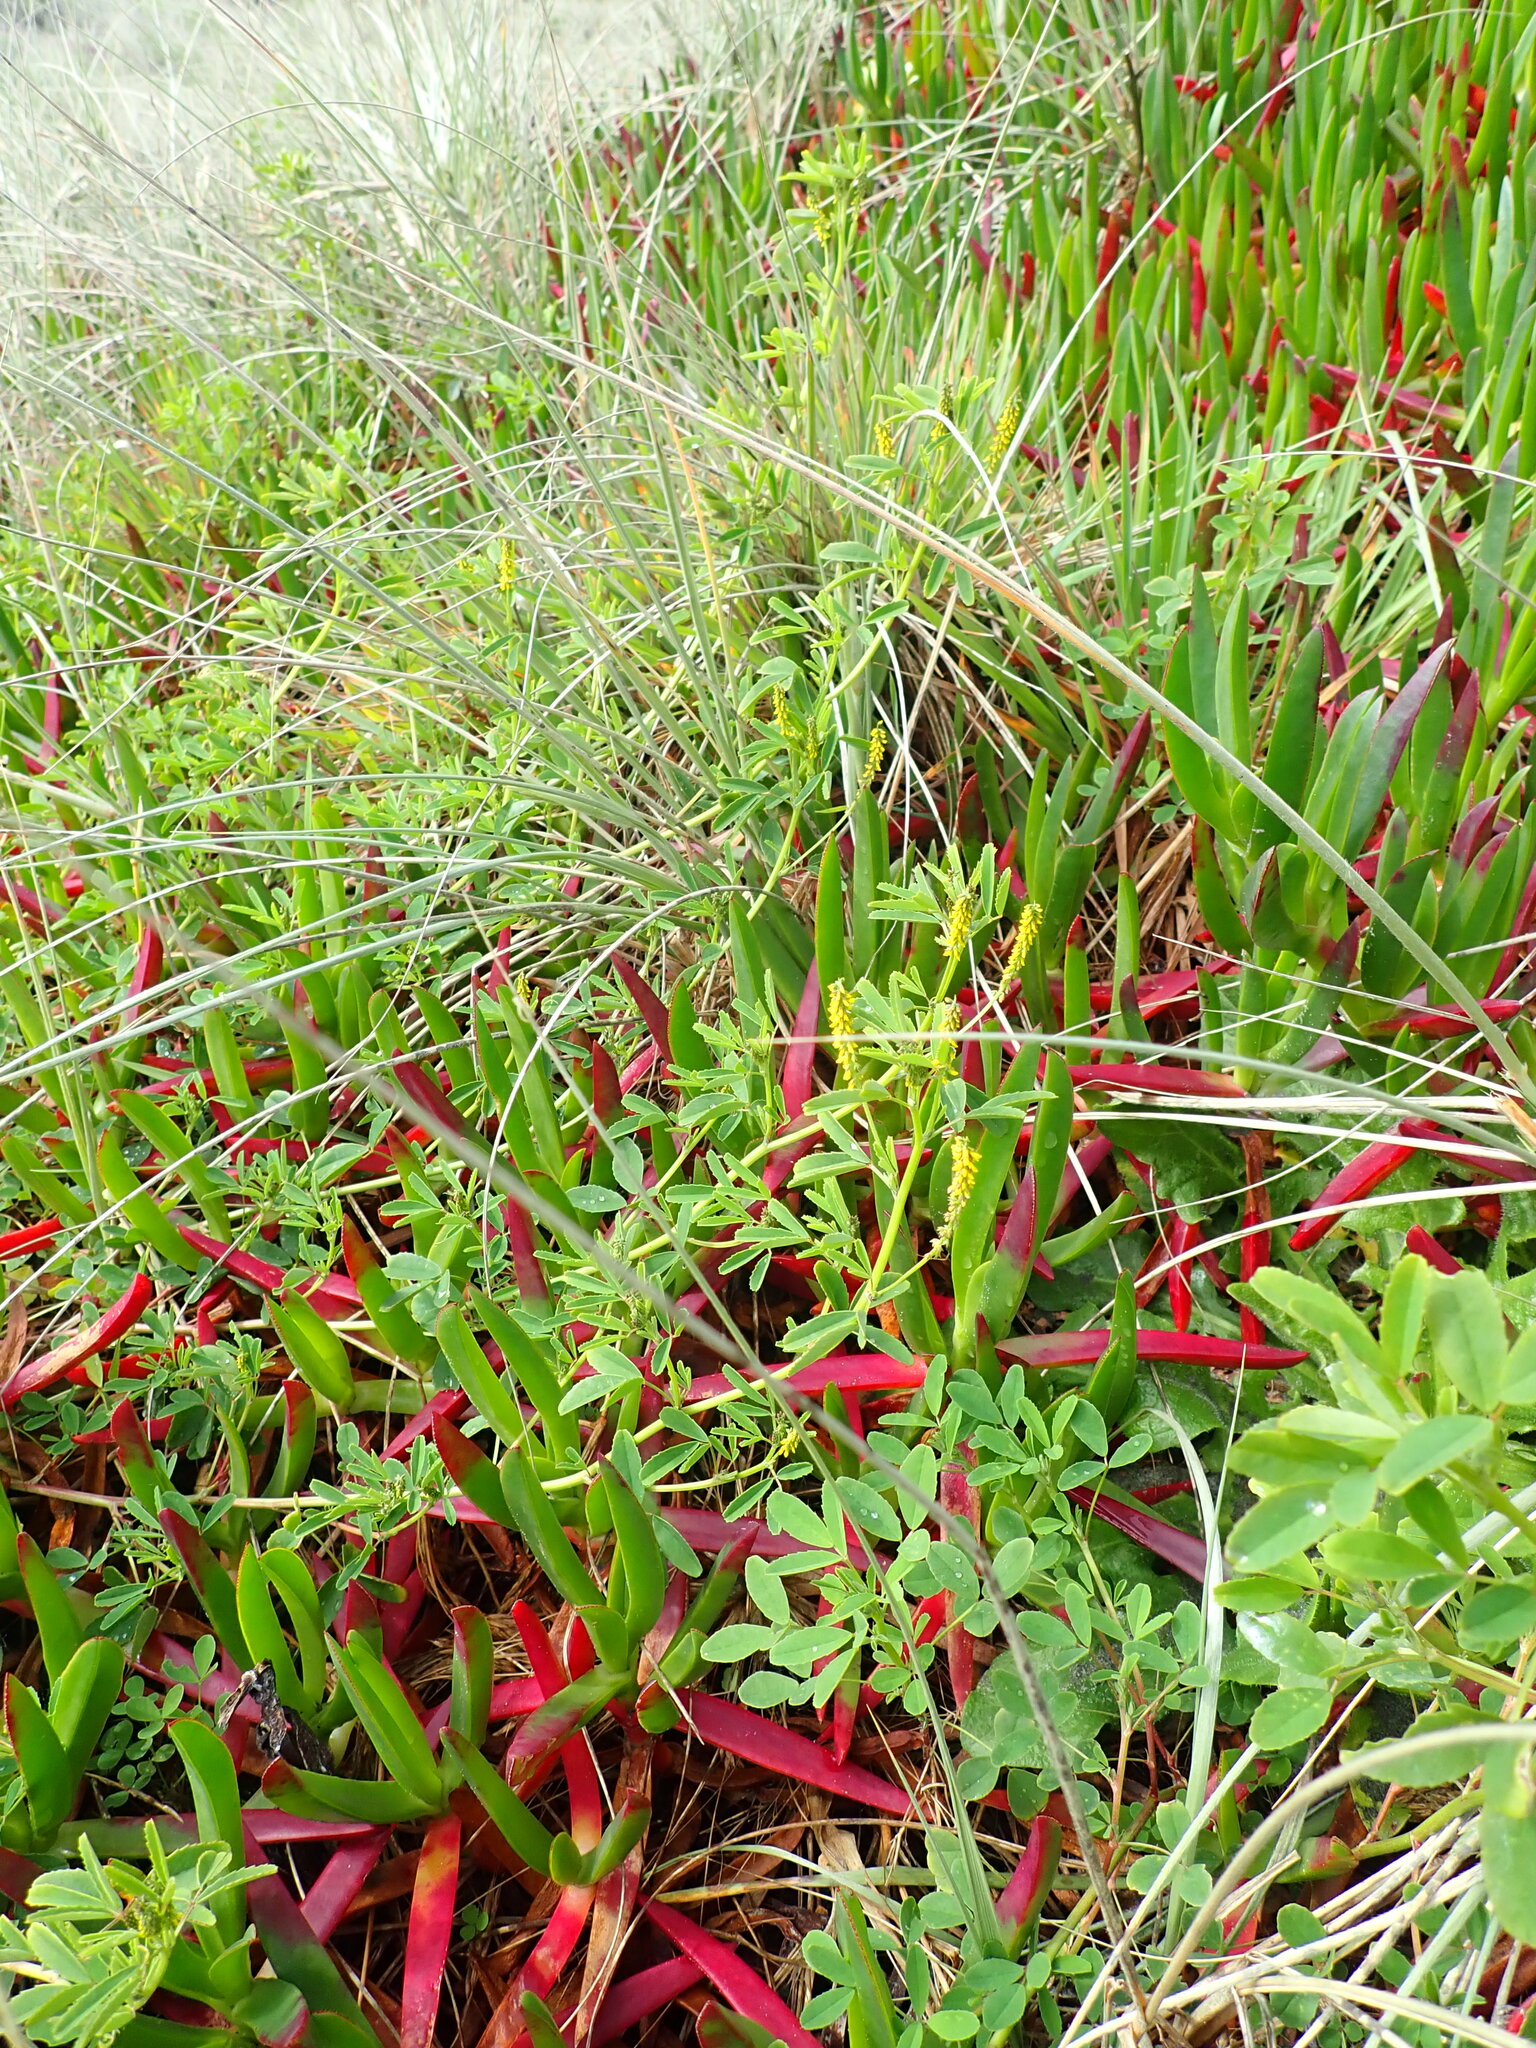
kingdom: Plantae
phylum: Tracheophyta
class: Magnoliopsida
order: Fabales
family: Fabaceae
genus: Melilotus
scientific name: Melilotus indicus
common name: Small melilot
